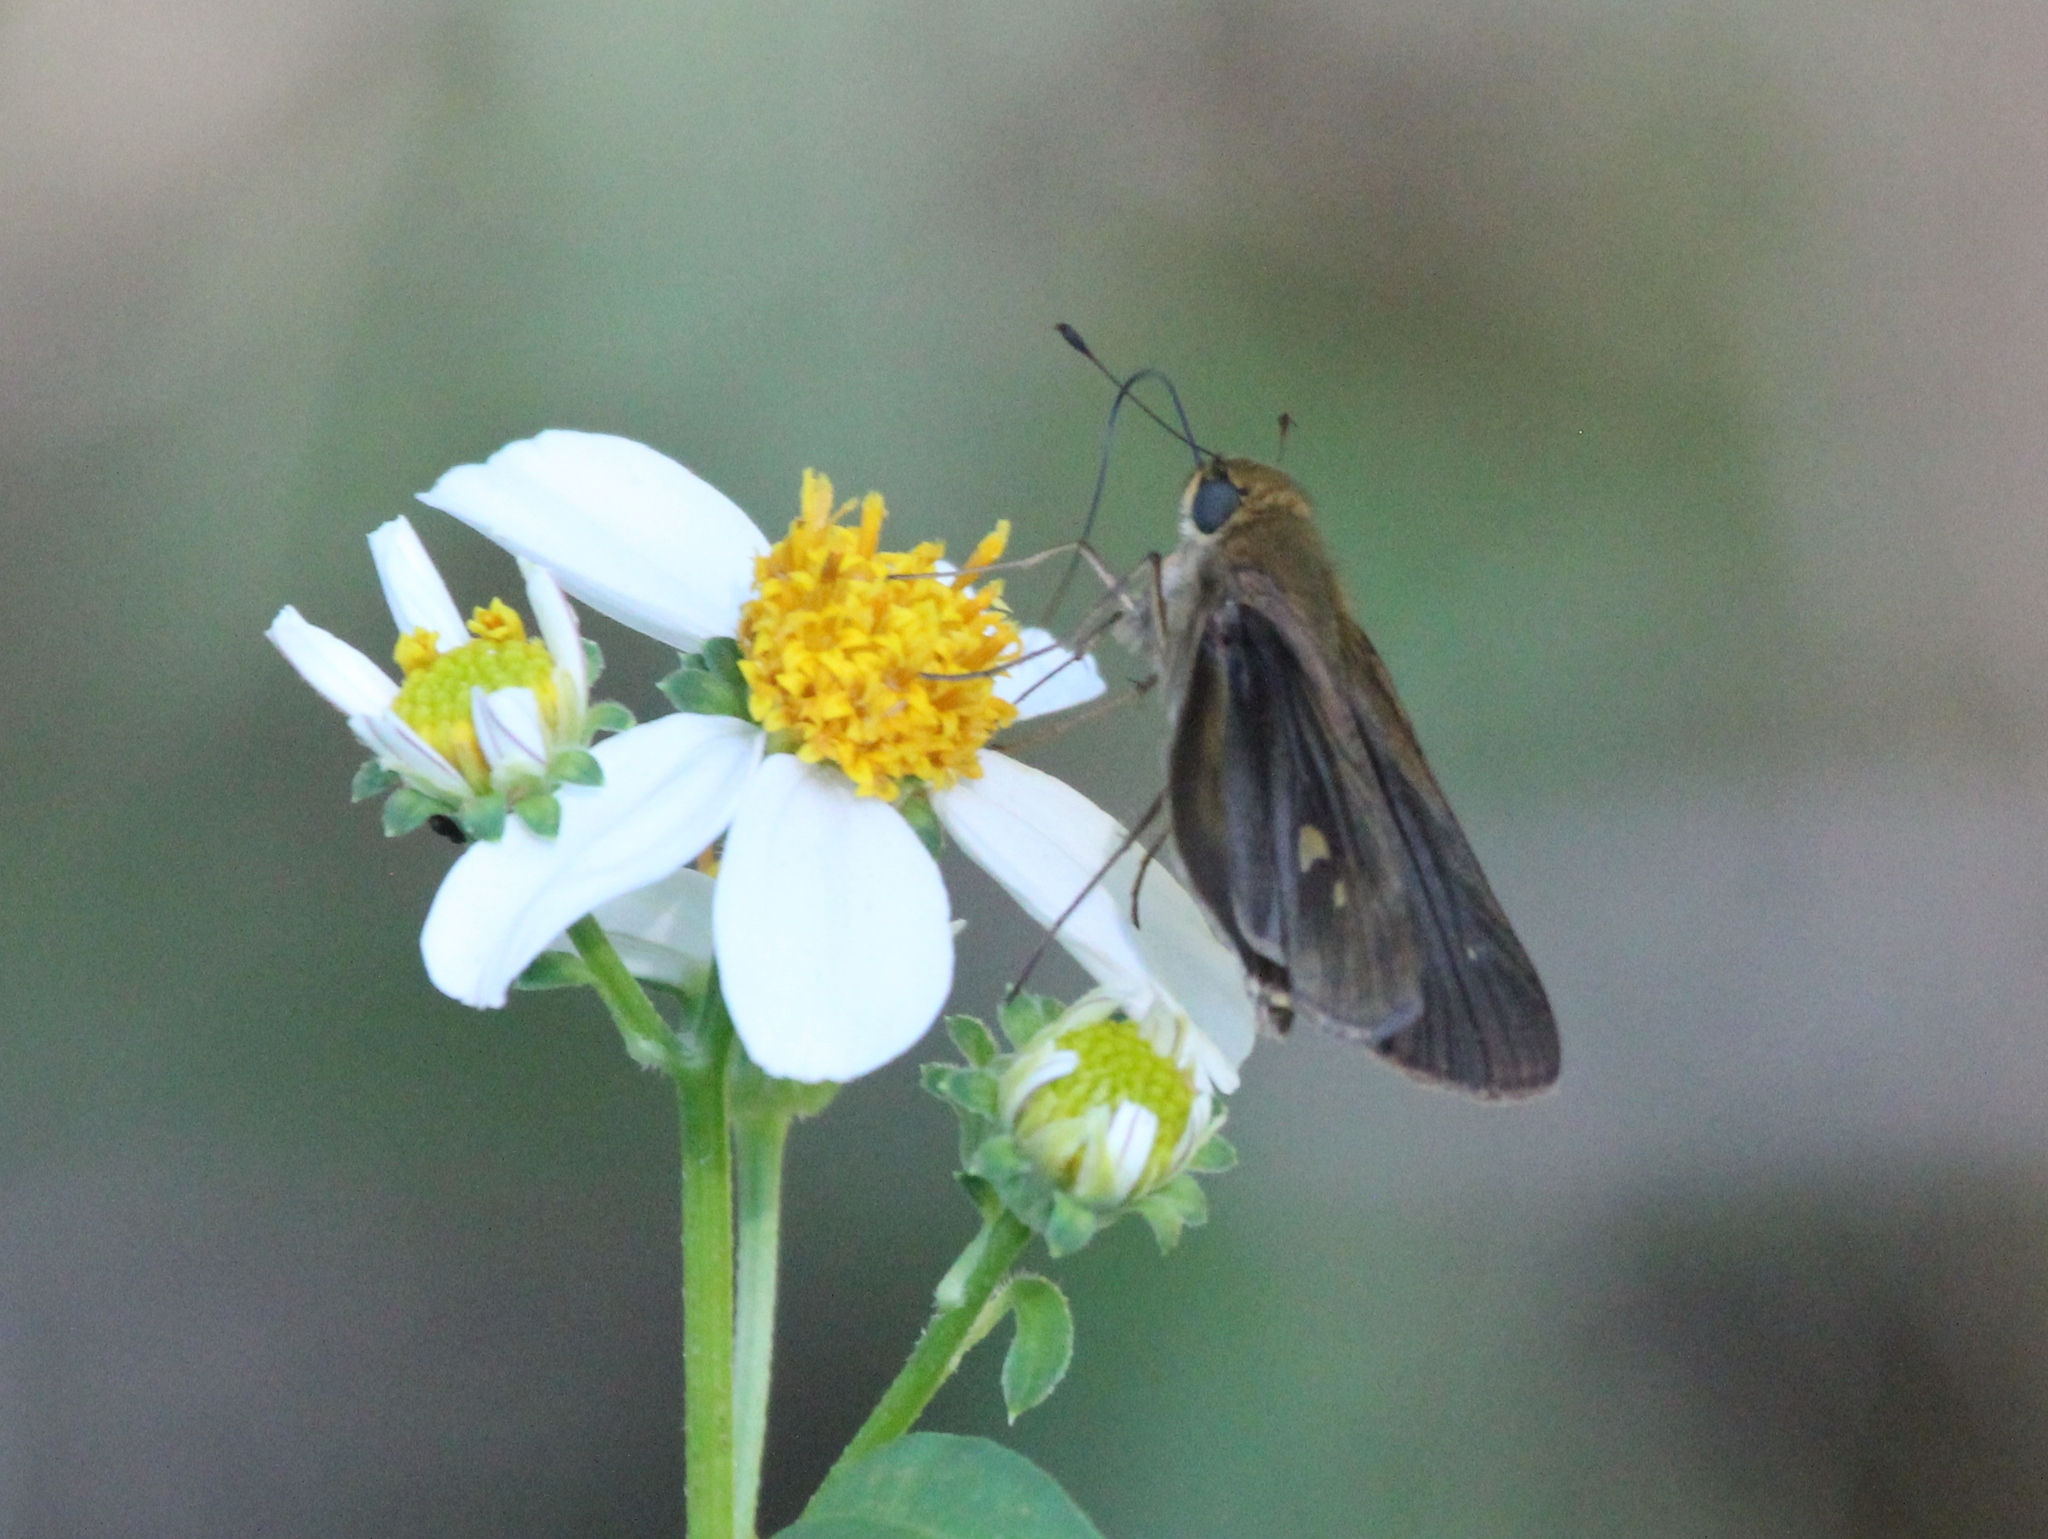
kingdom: Animalia
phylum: Arthropoda
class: Insecta
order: Lepidoptera
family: Hesperiidae
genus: Panoquina
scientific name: Panoquina ocola
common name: Ocola skipper
